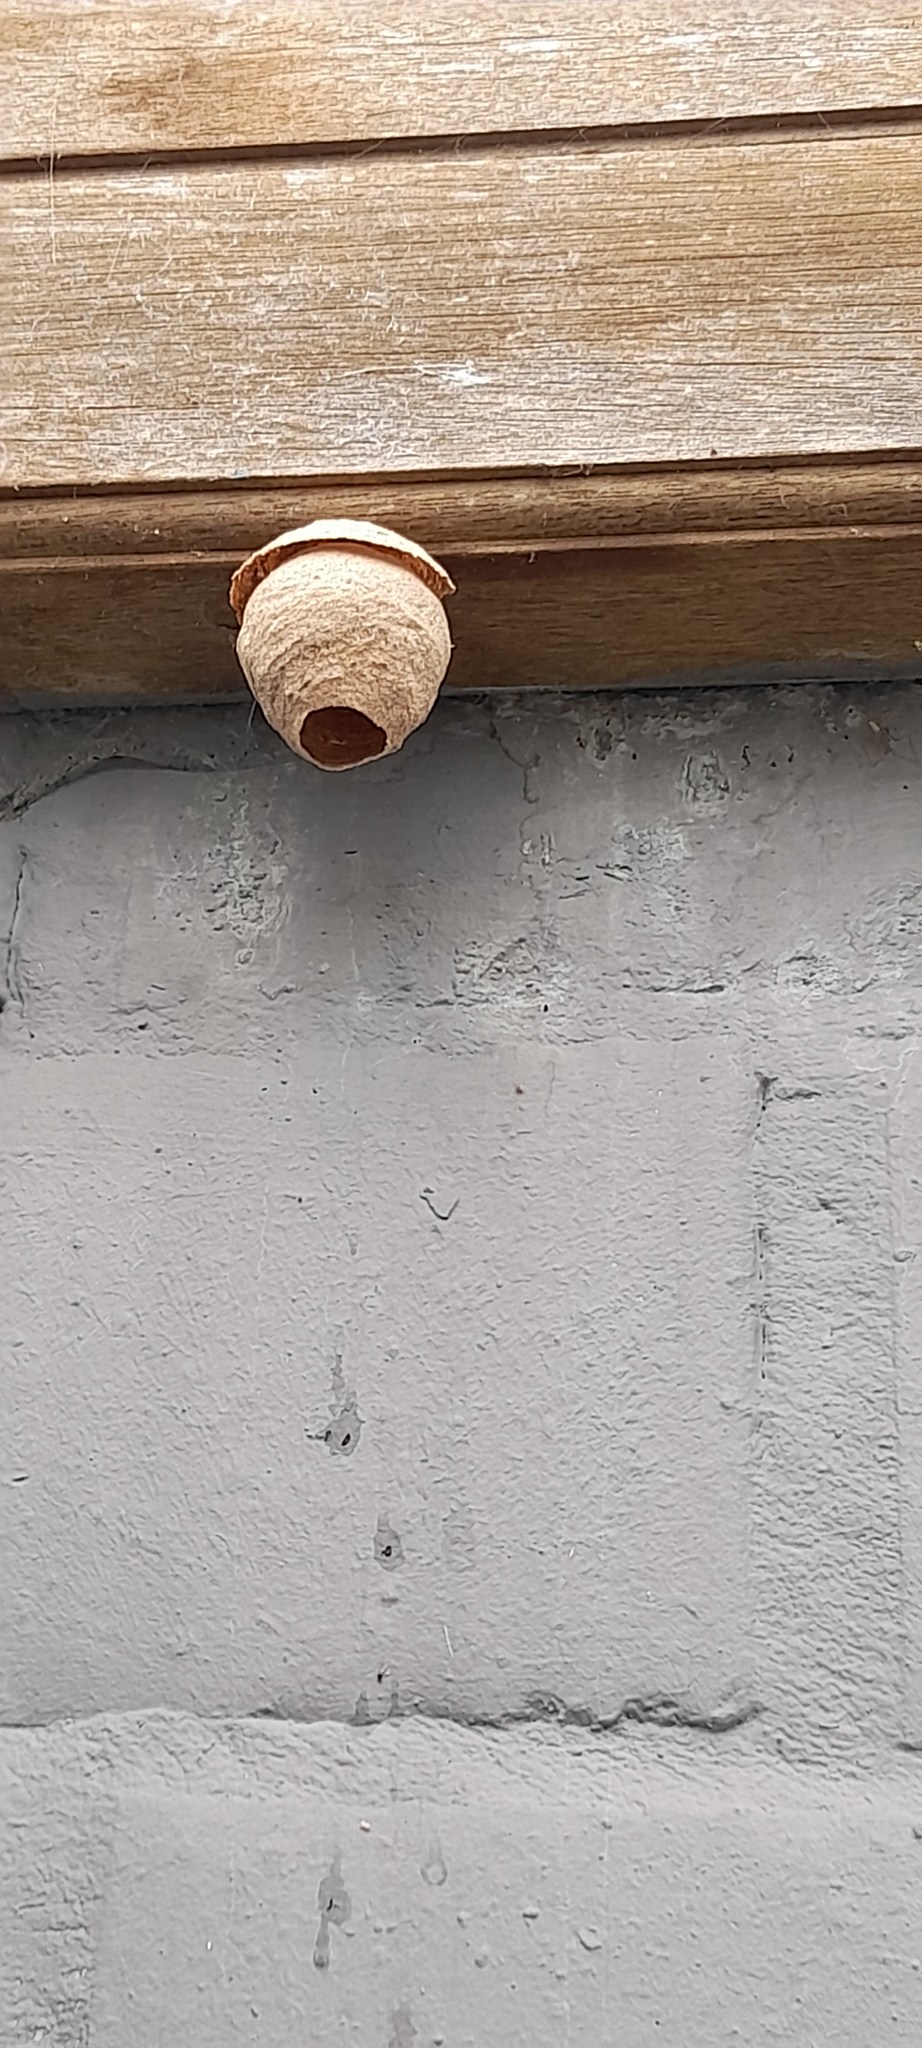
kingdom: Animalia
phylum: Arthropoda
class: Insecta
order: Hymenoptera
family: Vespidae
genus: Vespa
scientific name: Vespa velutina
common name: Asian hornet
